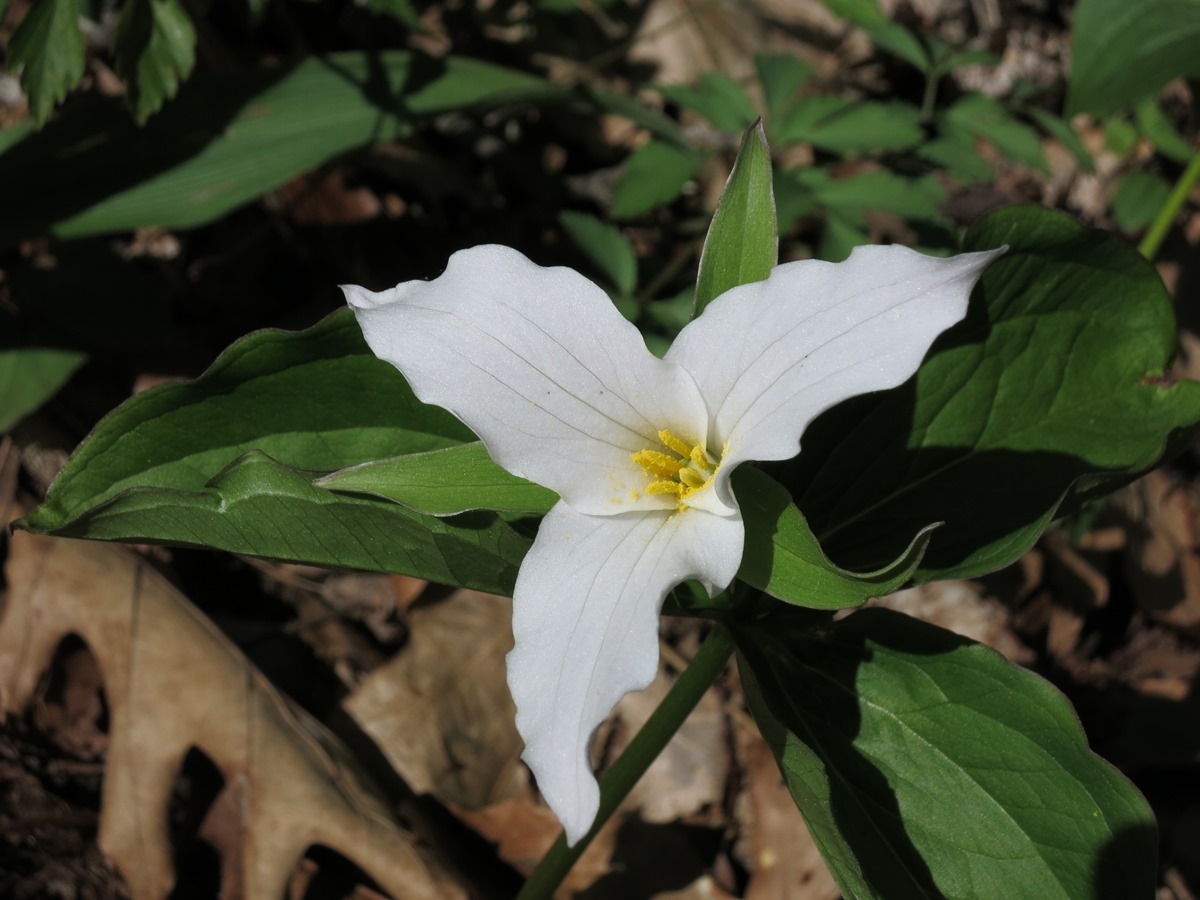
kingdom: Plantae
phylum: Tracheophyta
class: Liliopsida
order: Liliales
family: Melanthiaceae
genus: Trillium
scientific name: Trillium grandiflorum
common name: Great white trillium
